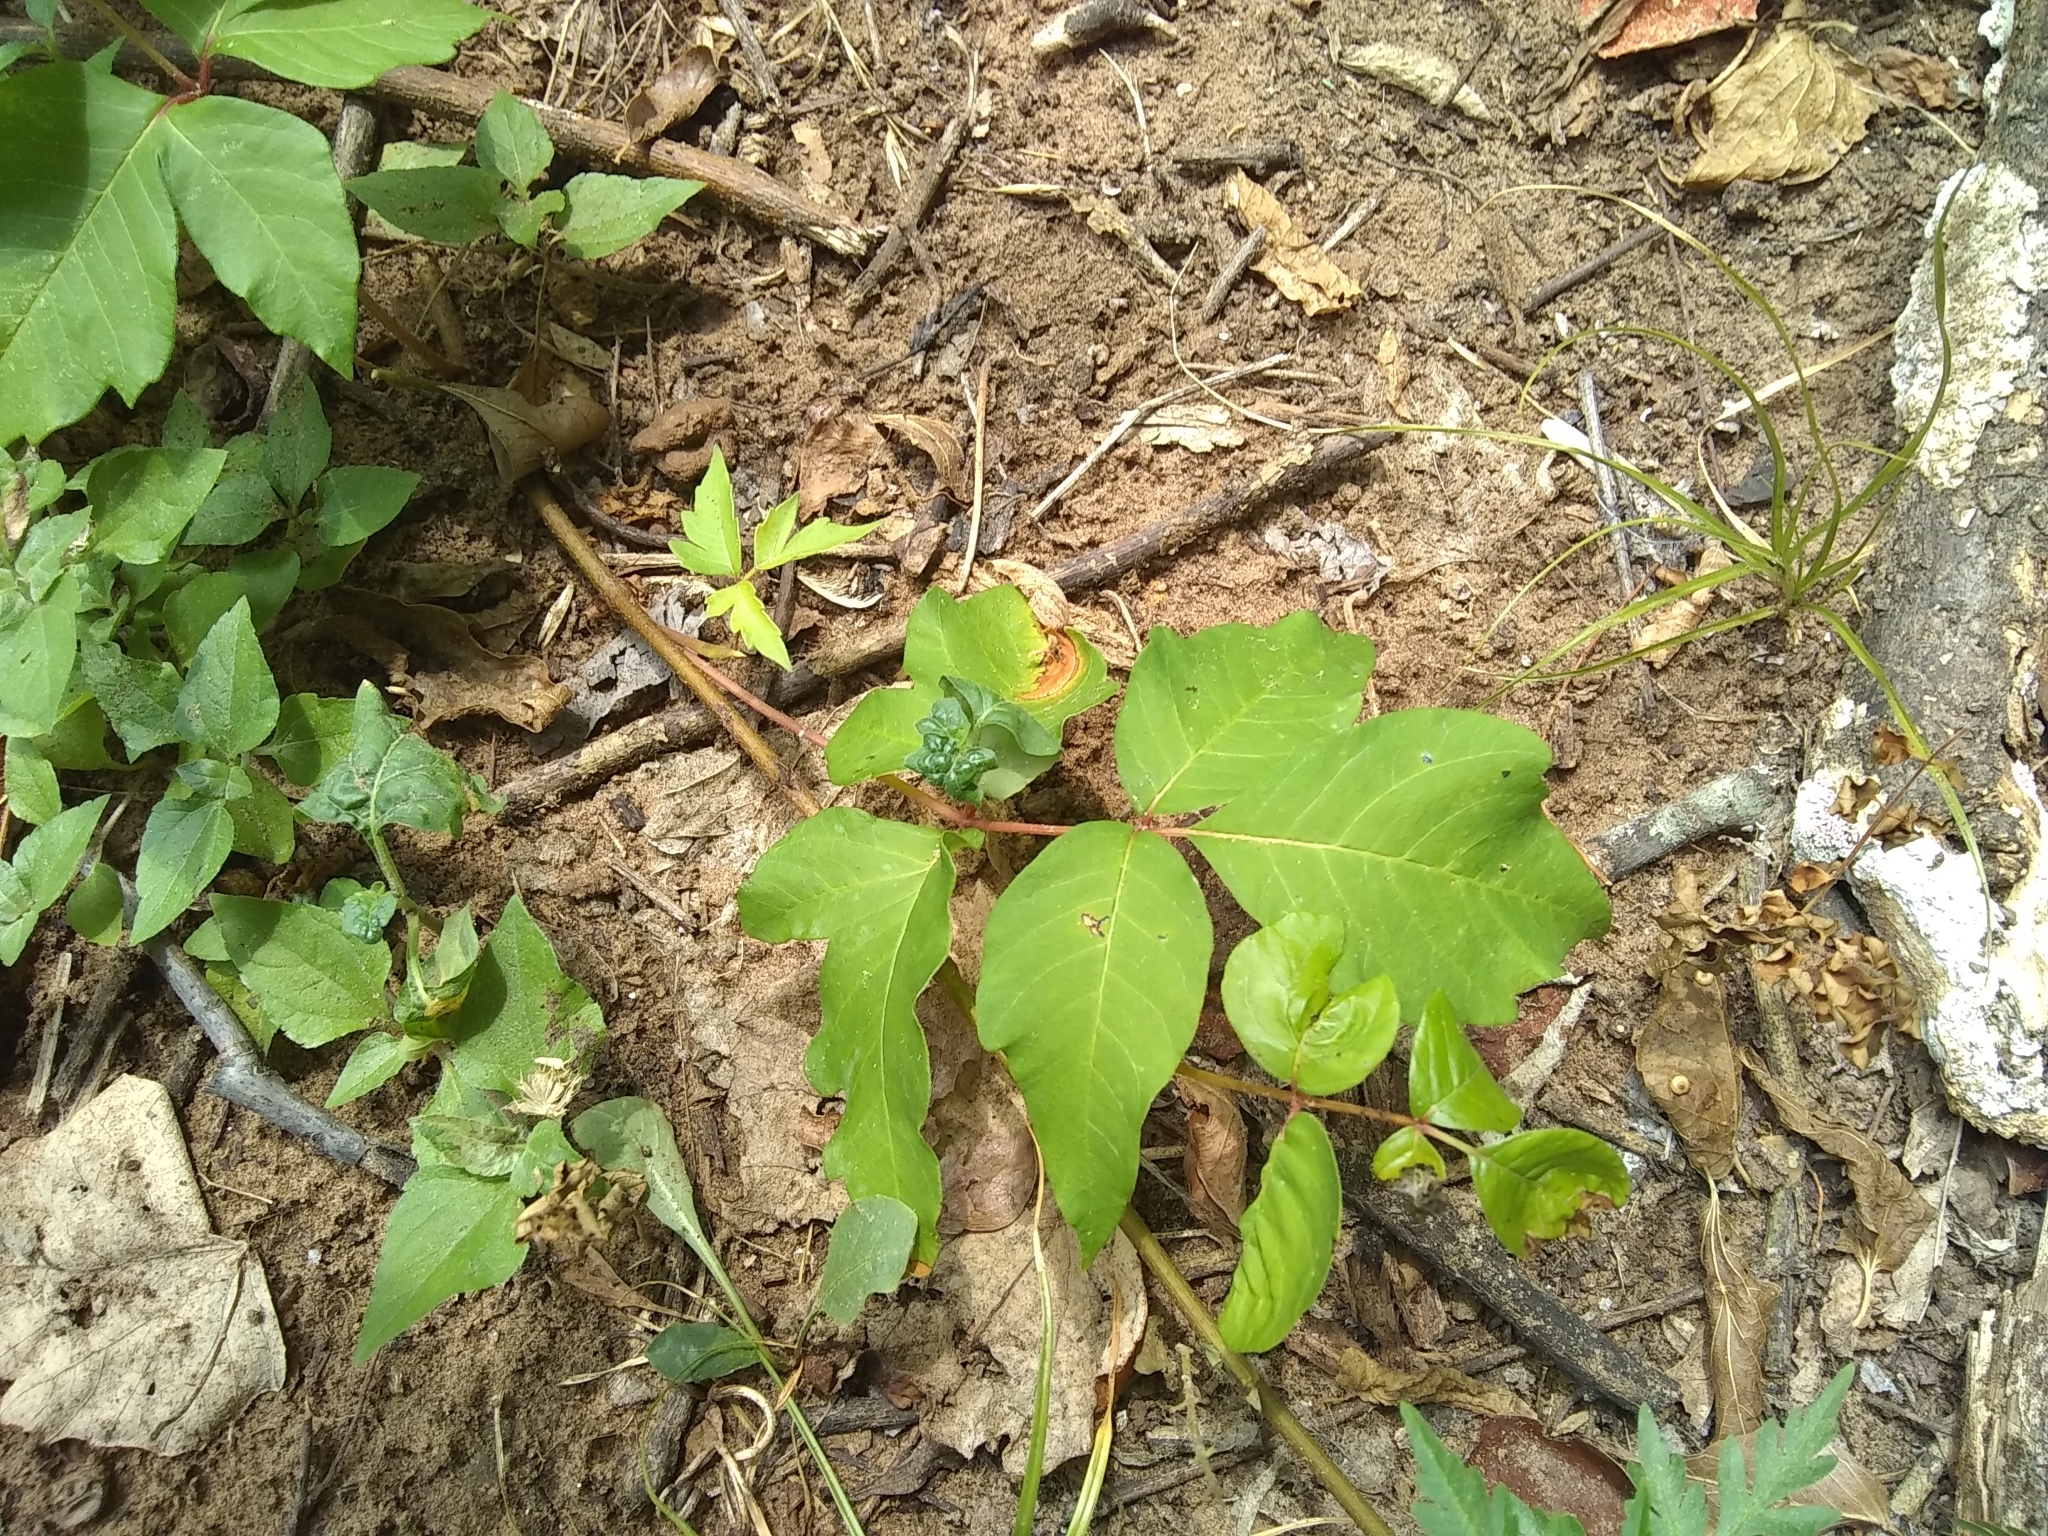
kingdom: Plantae
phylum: Tracheophyta
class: Magnoliopsida
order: Sapindales
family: Anacardiaceae
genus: Toxicodendron
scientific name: Toxicodendron radicans
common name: Poison ivy
